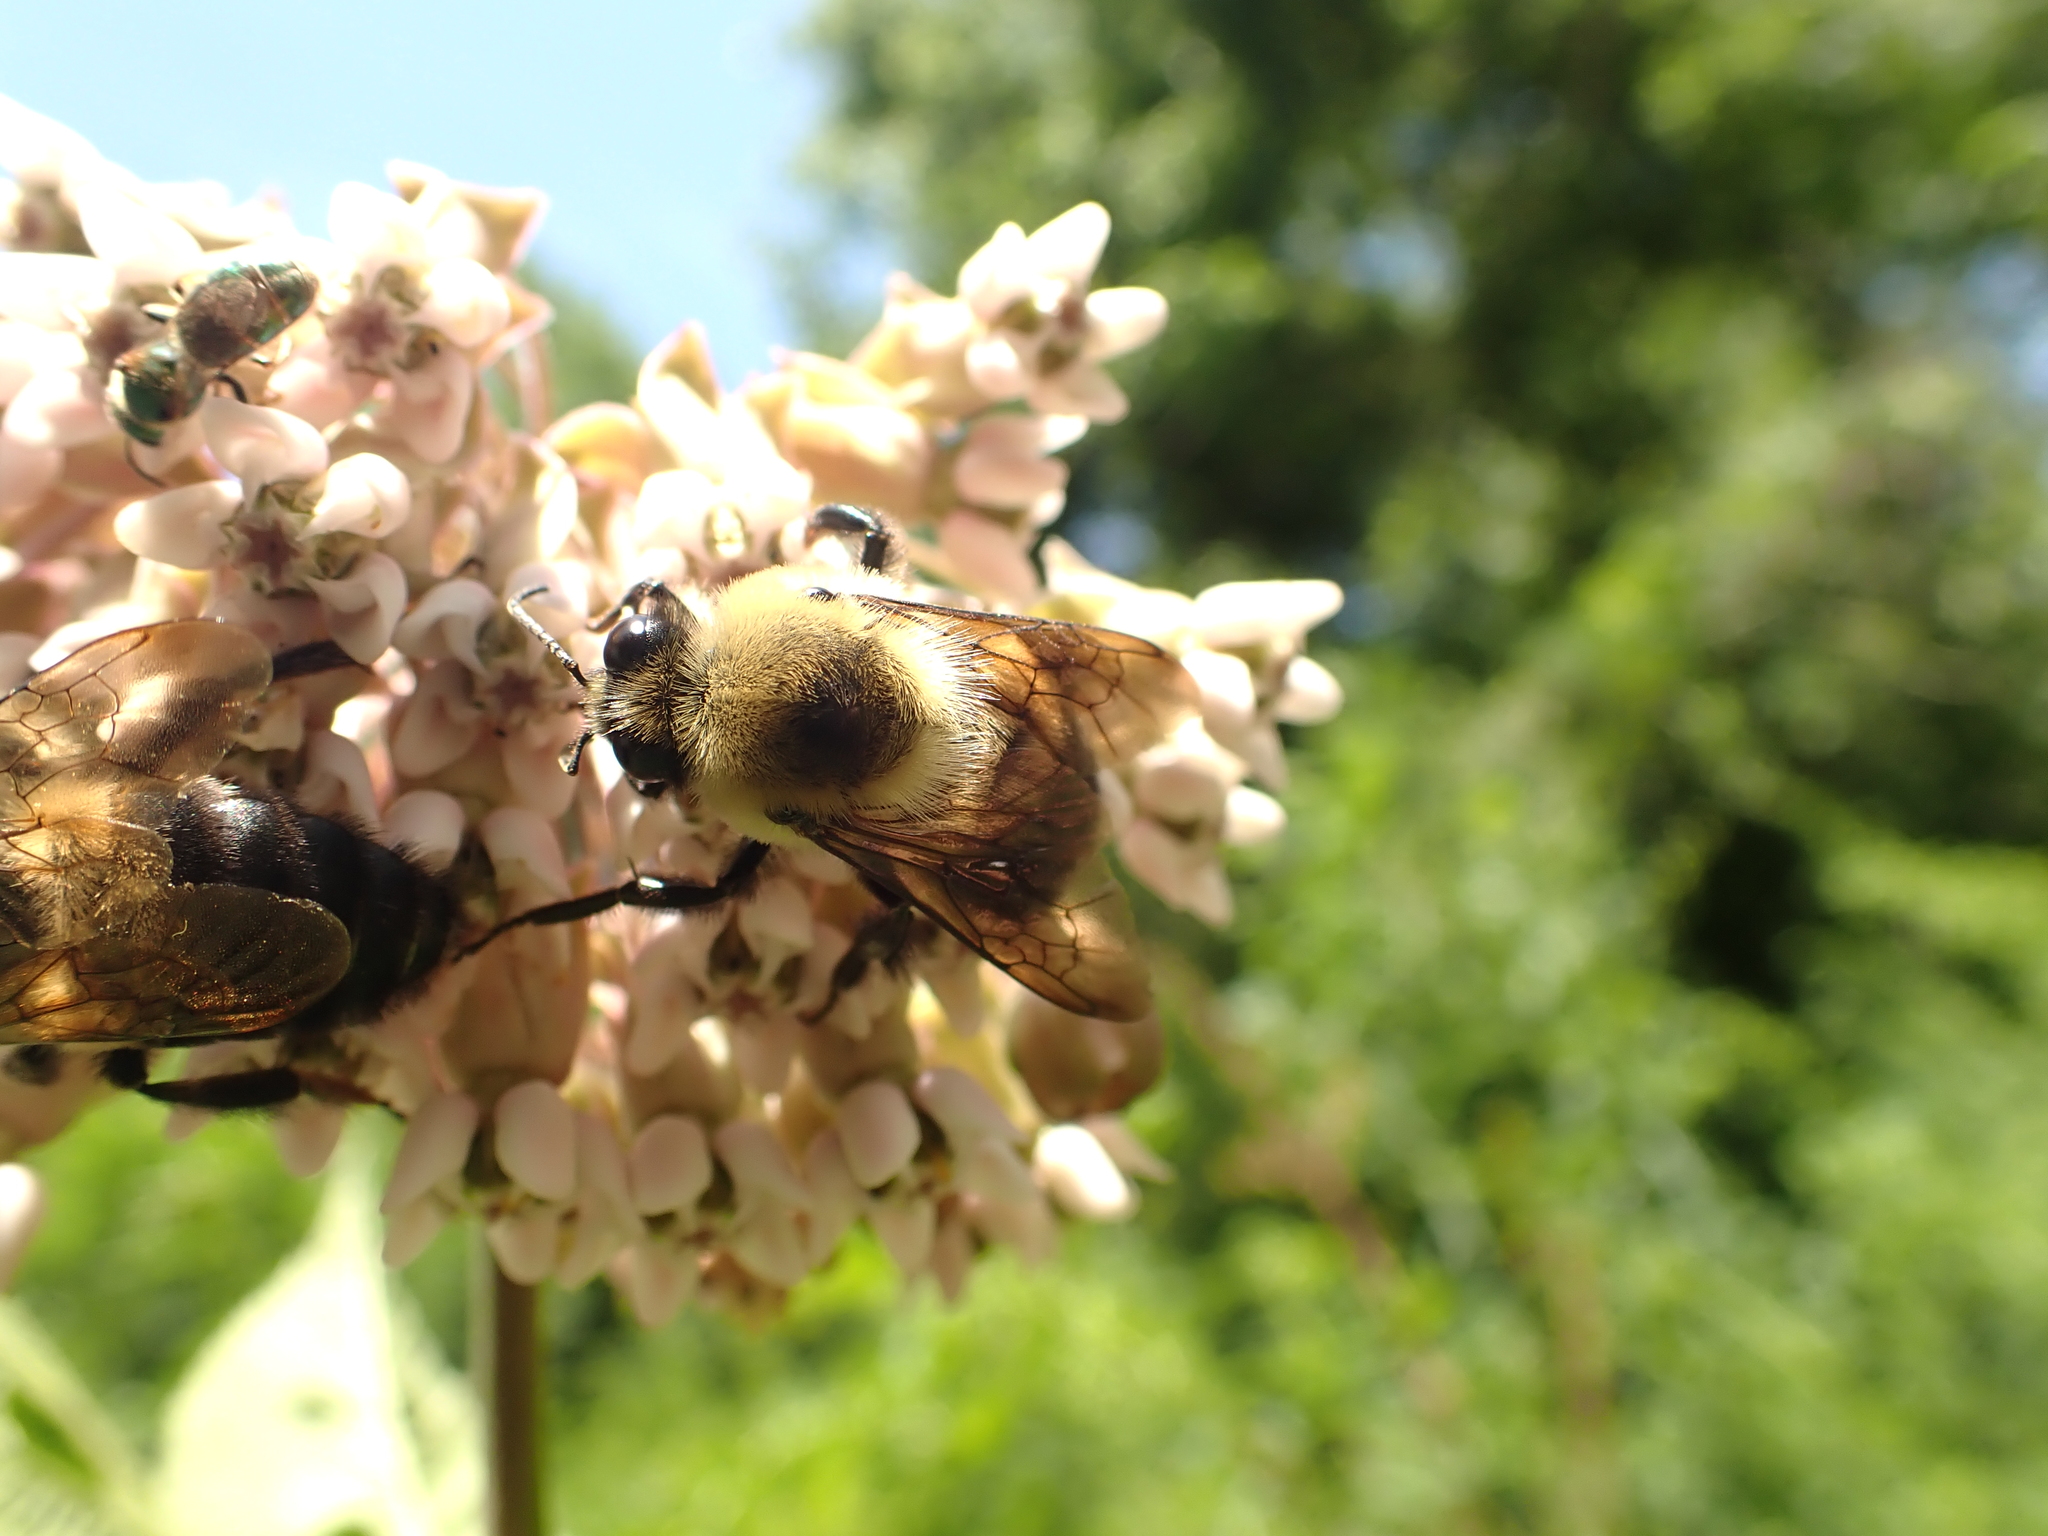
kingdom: Animalia
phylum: Arthropoda
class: Insecta
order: Hymenoptera
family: Apidae
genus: Bombus
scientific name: Bombus griseocollis
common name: Brown-belted bumble bee
